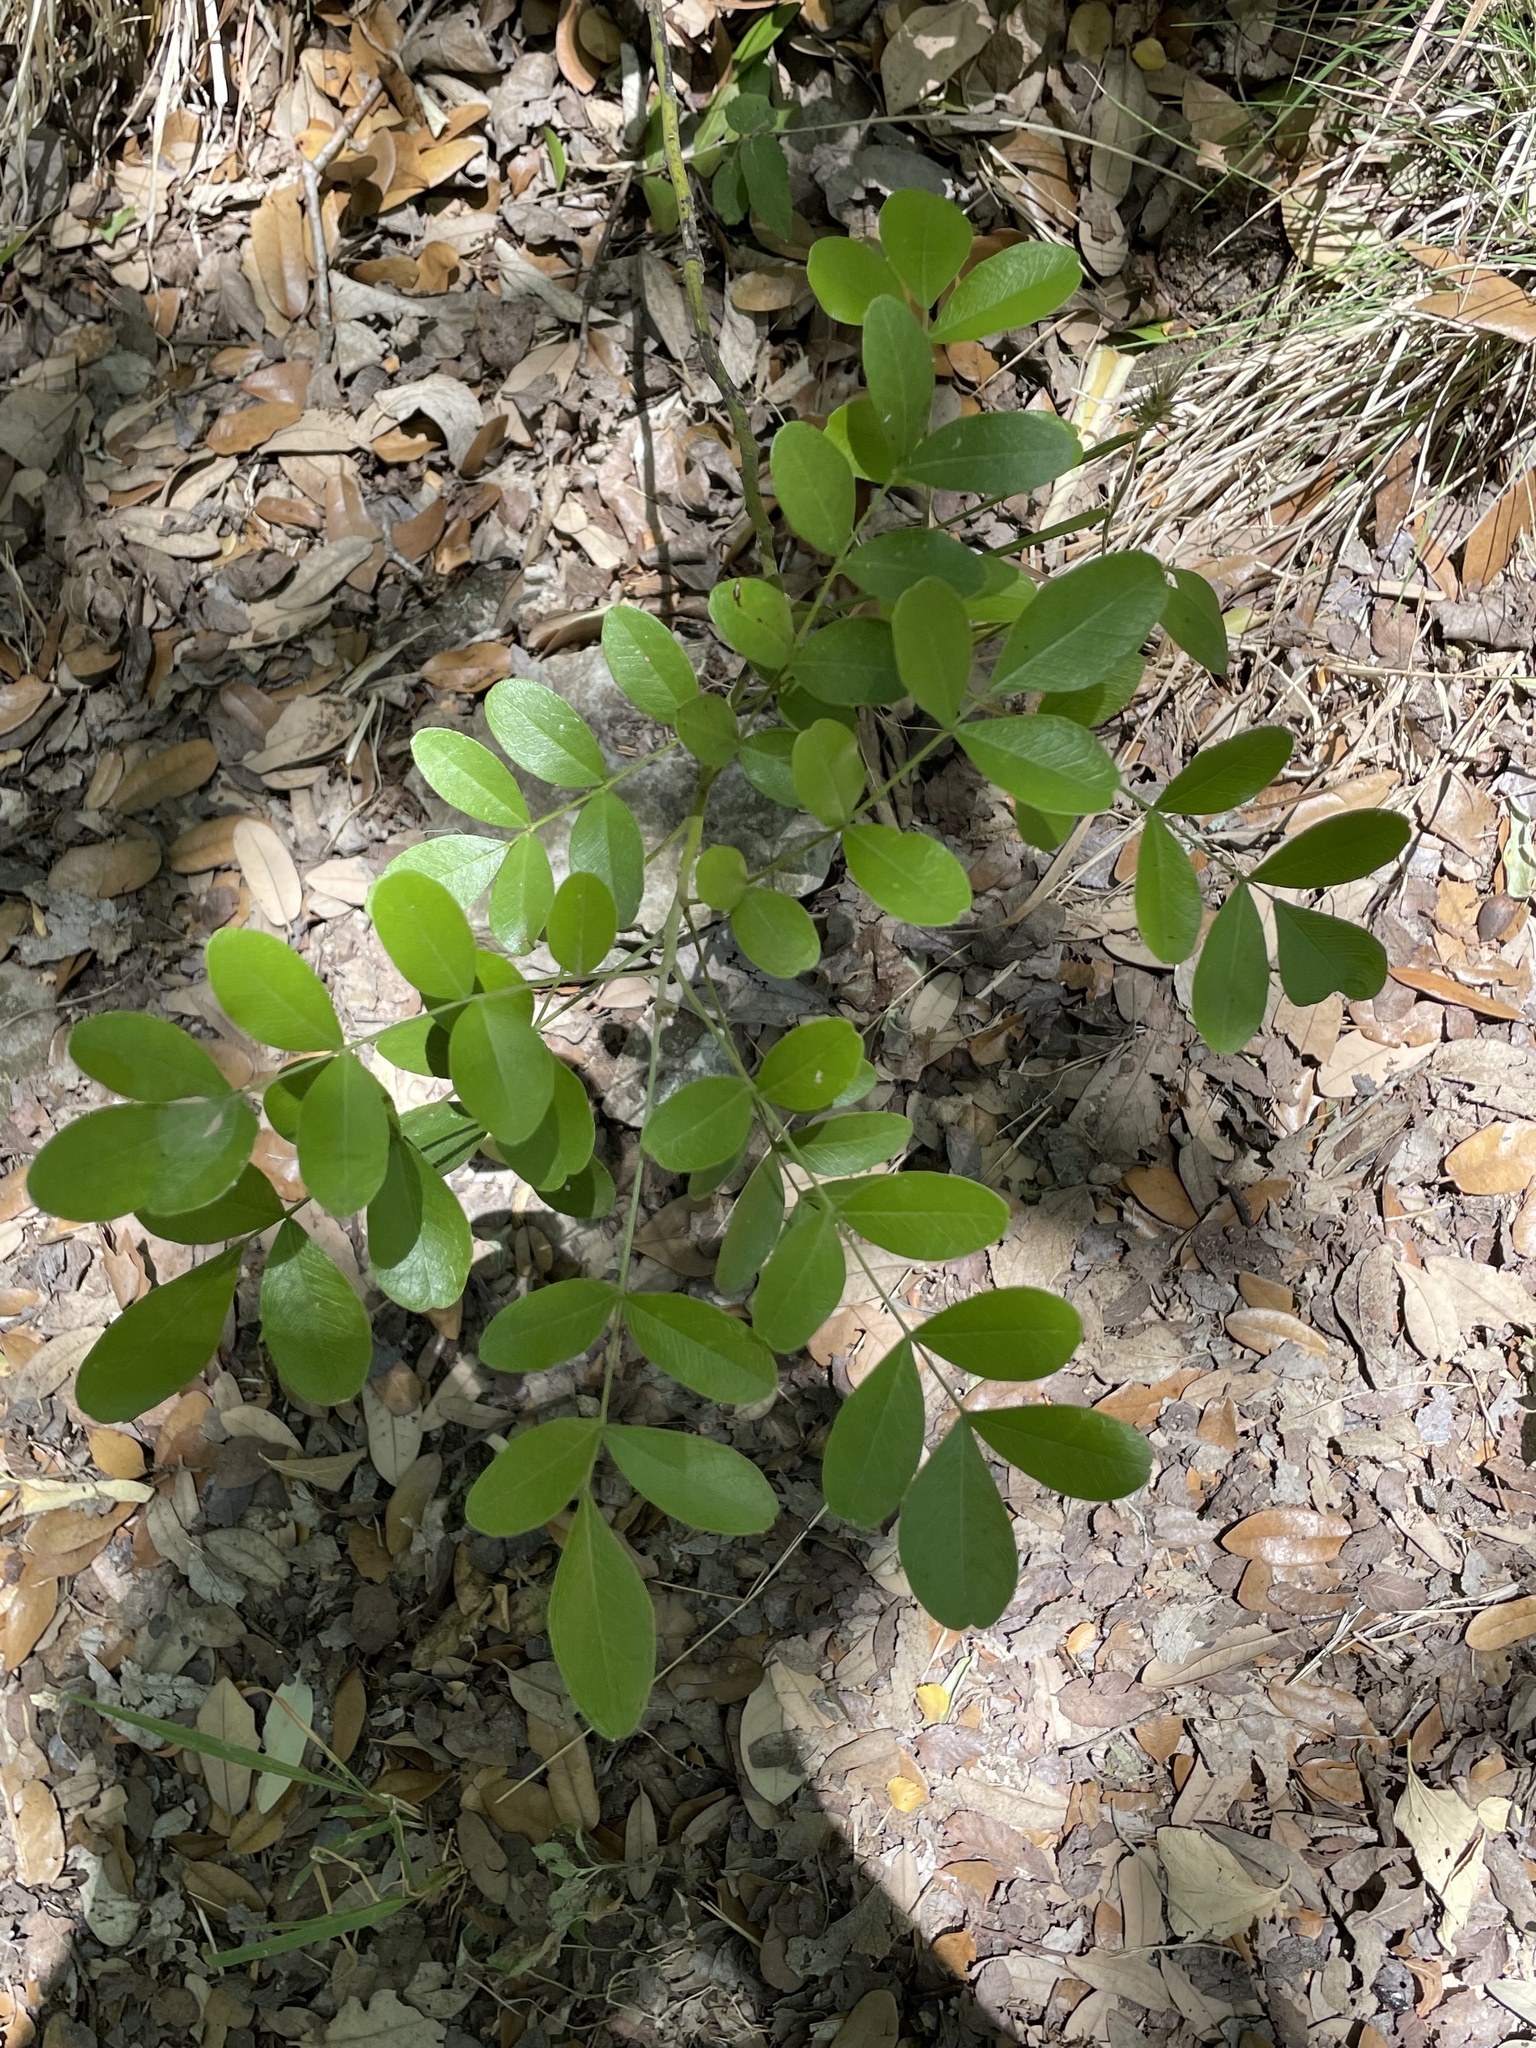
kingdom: Plantae
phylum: Tracheophyta
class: Magnoliopsida
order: Fabales
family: Fabaceae
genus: Dermatophyllum
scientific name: Dermatophyllum secundiflorum
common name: Texas-mountain-laurel
